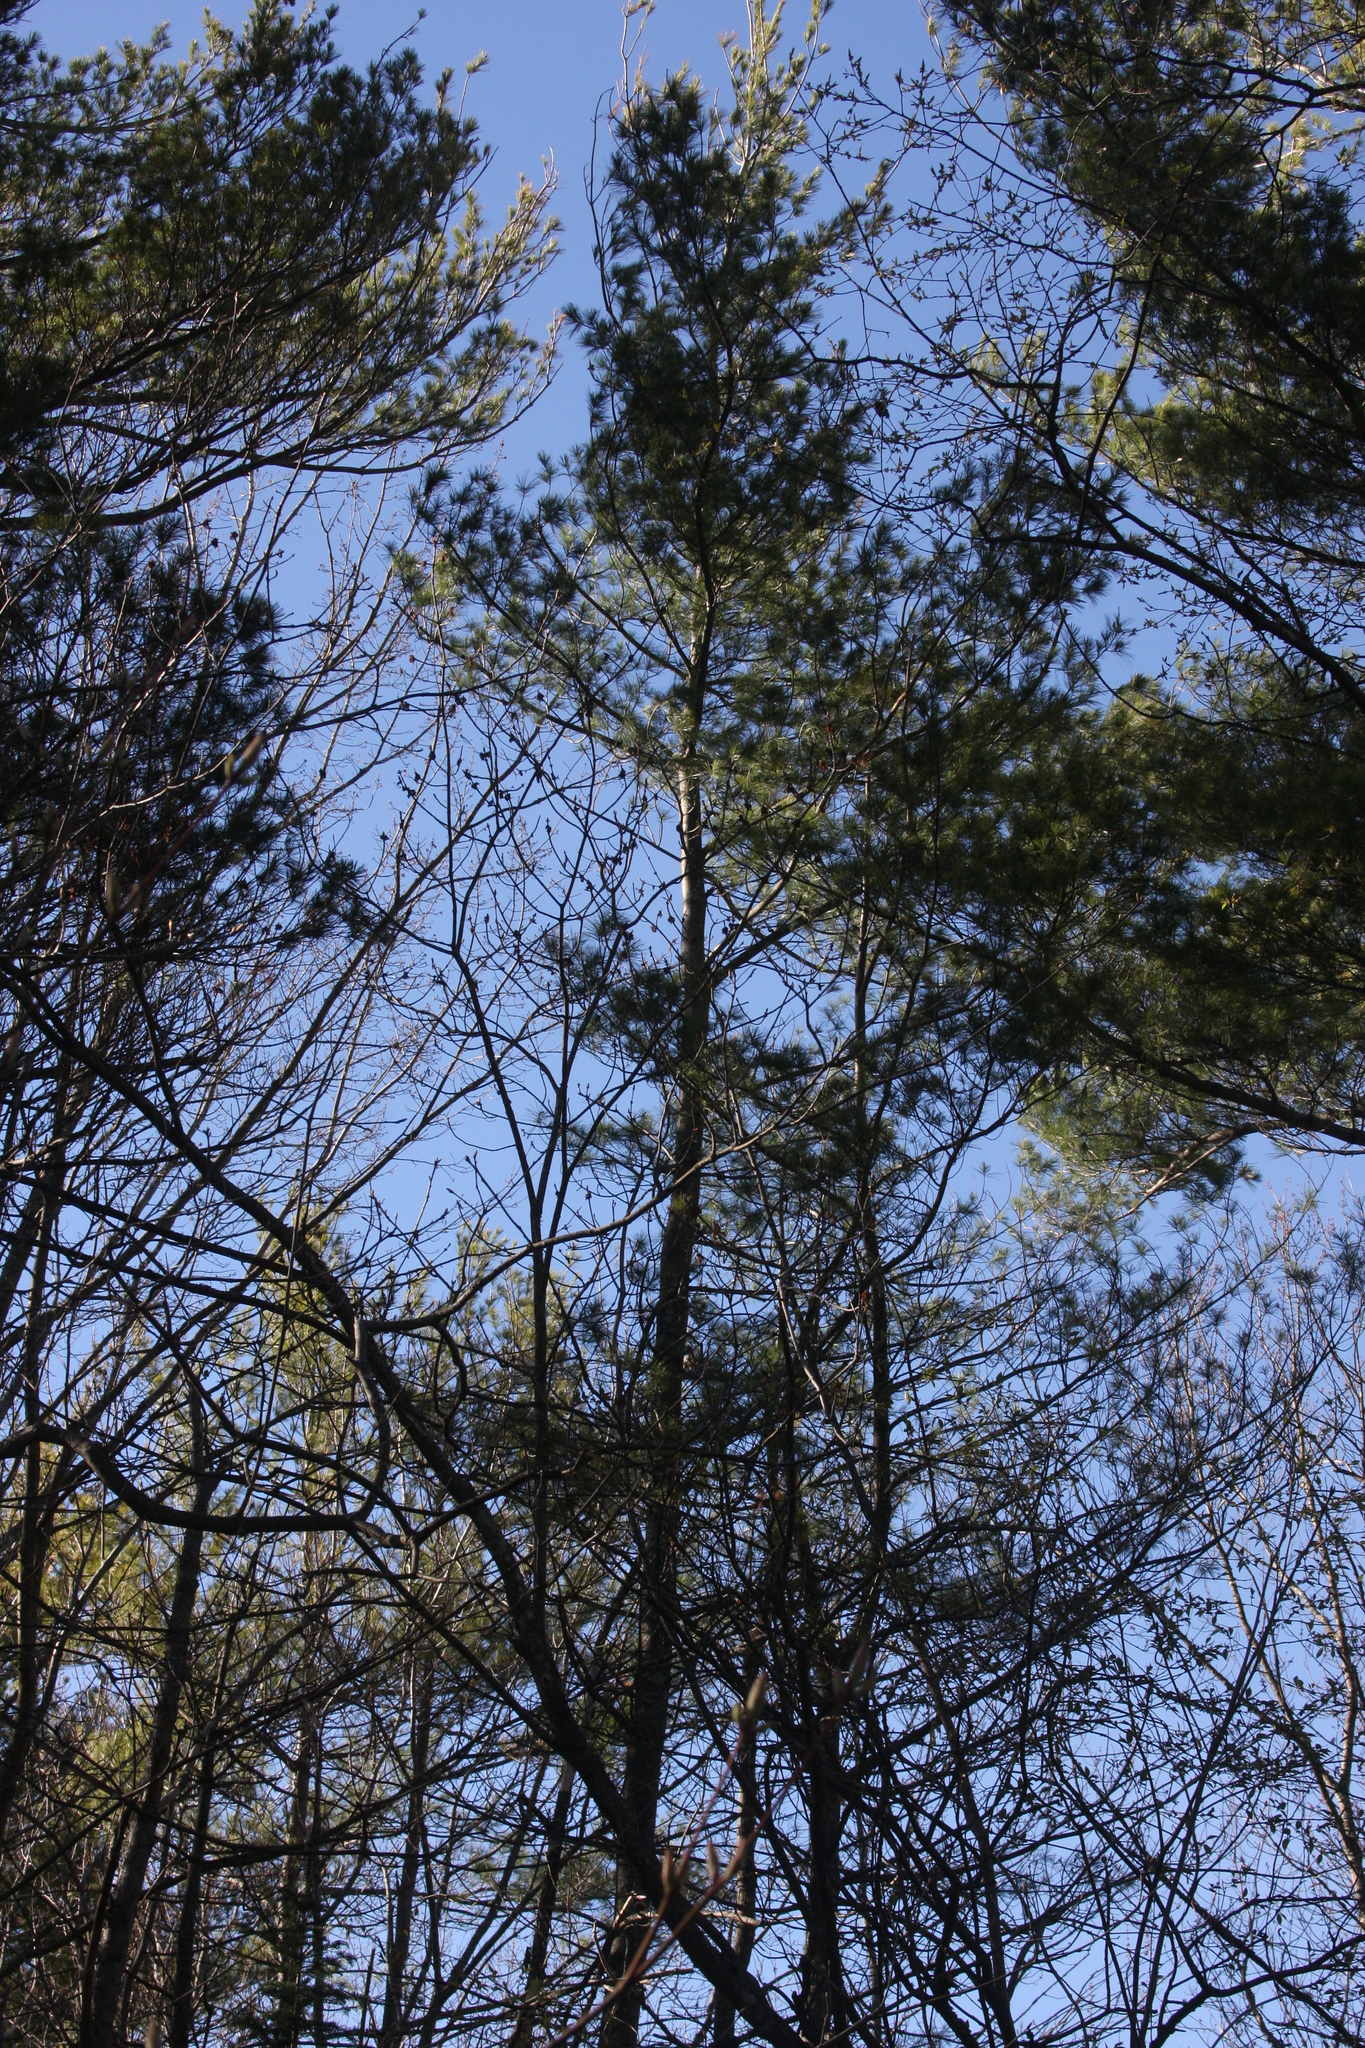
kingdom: Plantae
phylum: Tracheophyta
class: Pinopsida
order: Pinales
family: Pinaceae
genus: Pinus
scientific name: Pinus strobus
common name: Weymouth pine
